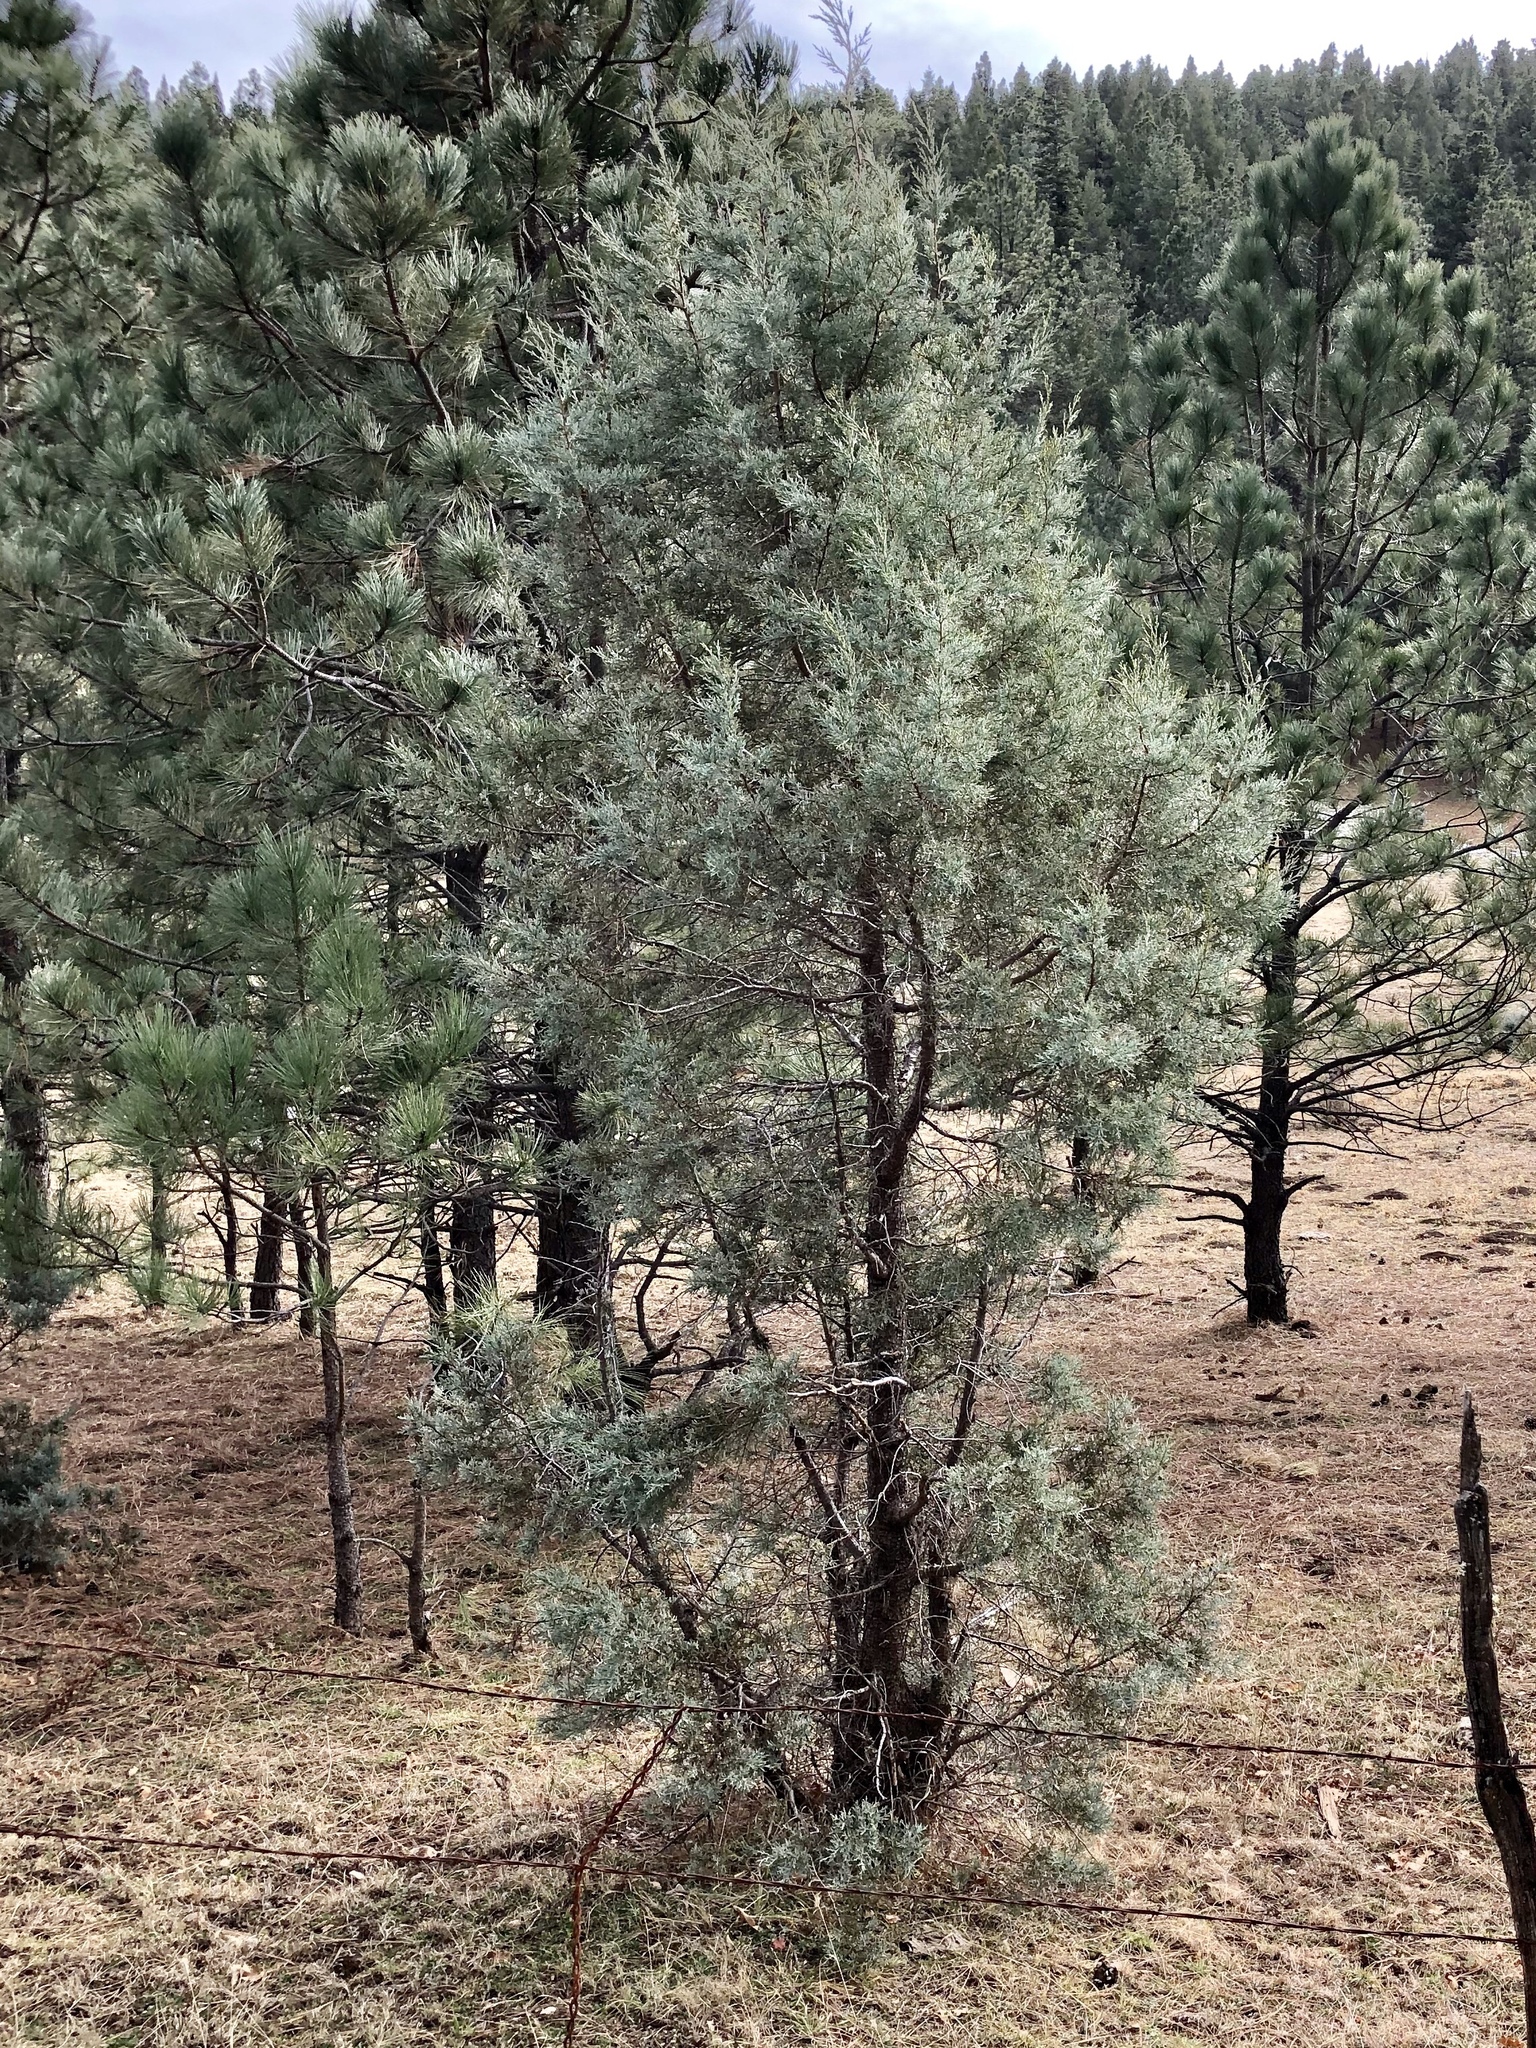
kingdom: Plantae
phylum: Tracheophyta
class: Pinopsida
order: Pinales
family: Cupressaceae
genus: Juniperus
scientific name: Juniperus deppeana
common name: Alligator juniper
